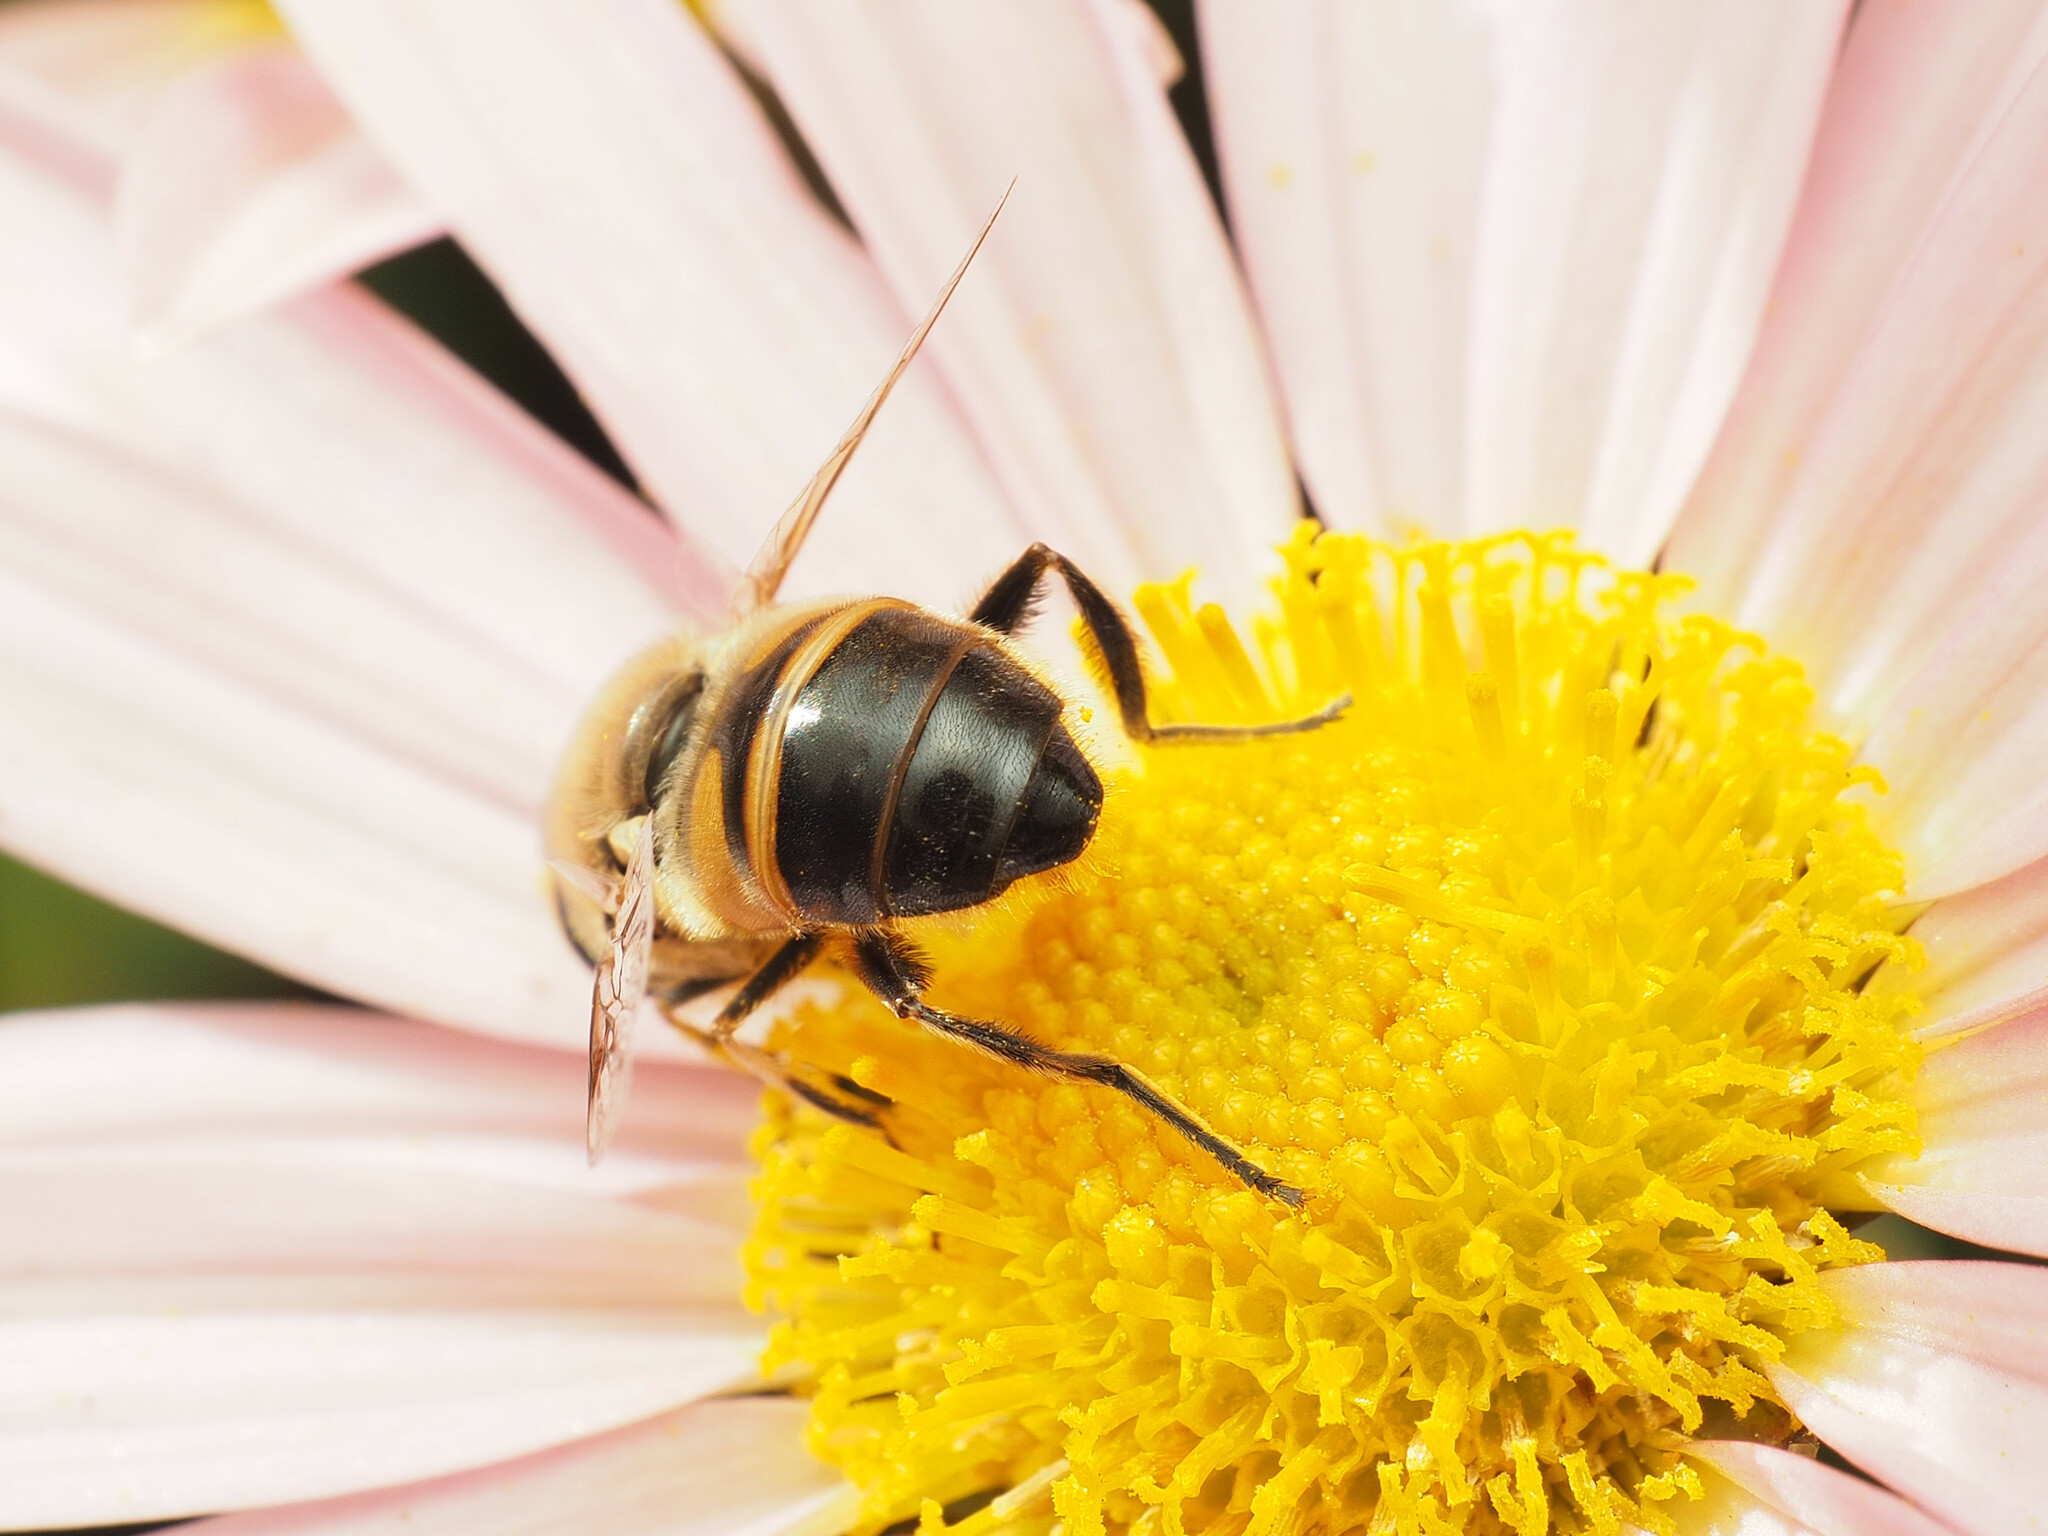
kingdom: Animalia
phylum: Arthropoda
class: Insecta
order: Diptera
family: Syrphidae
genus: Eristalis
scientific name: Eristalis tenax
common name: Drone fly
